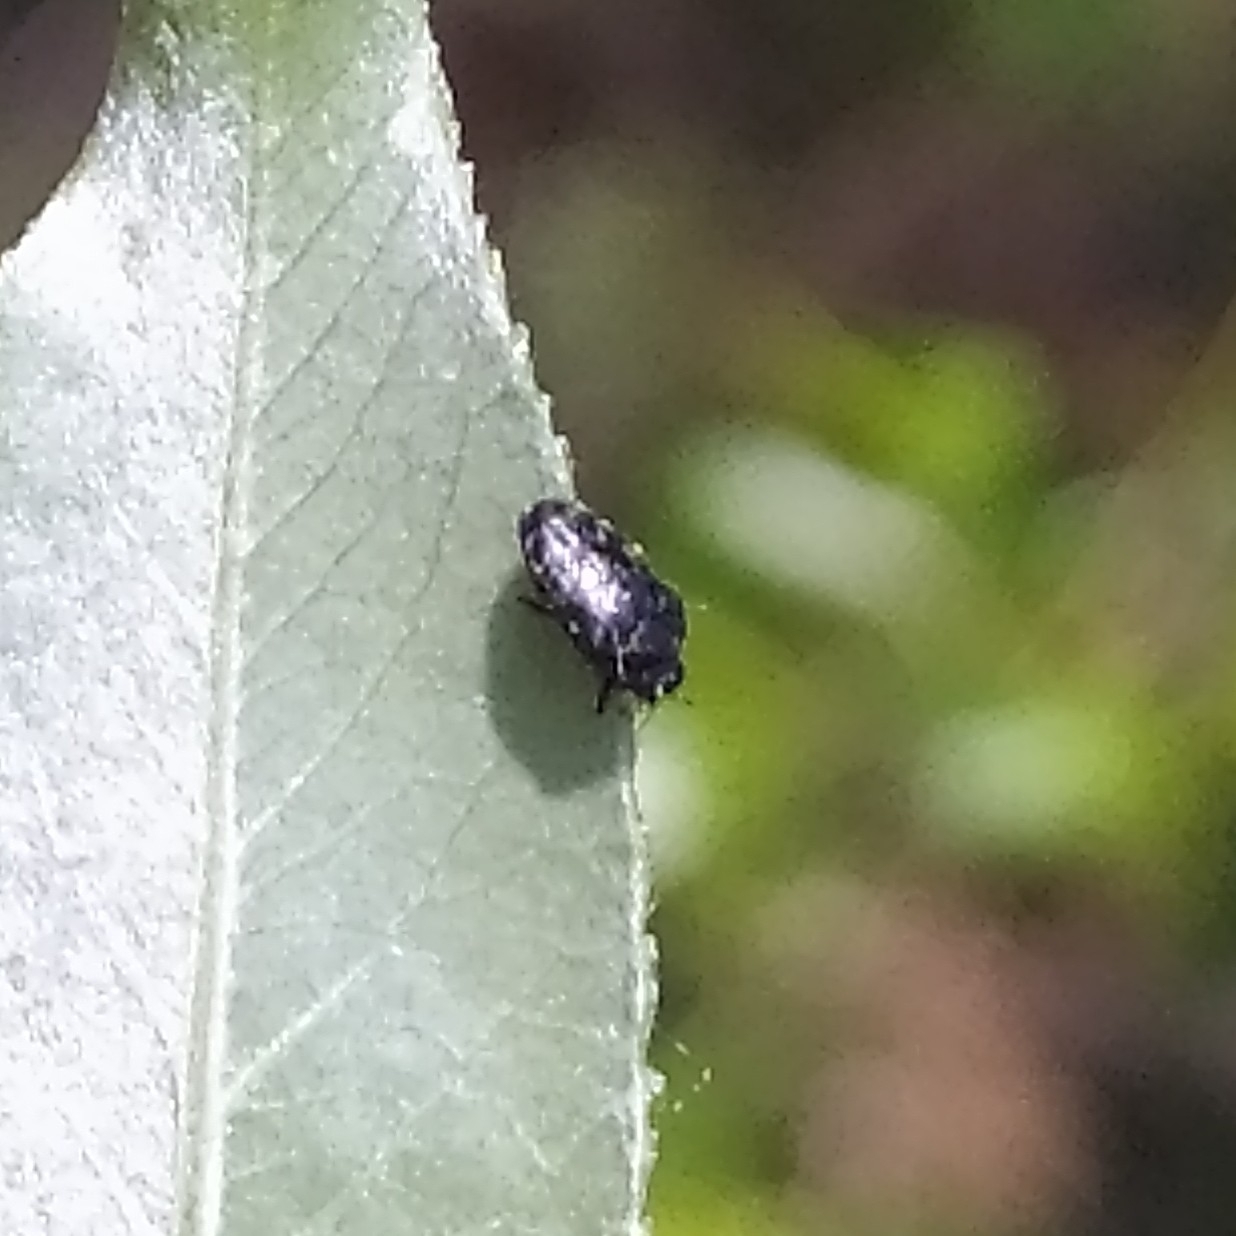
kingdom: Animalia
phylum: Arthropoda
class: Insecta
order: Coleoptera
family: Buprestidae
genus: Trachys
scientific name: Trachys minutus
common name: Metallic wood-boring beetle
